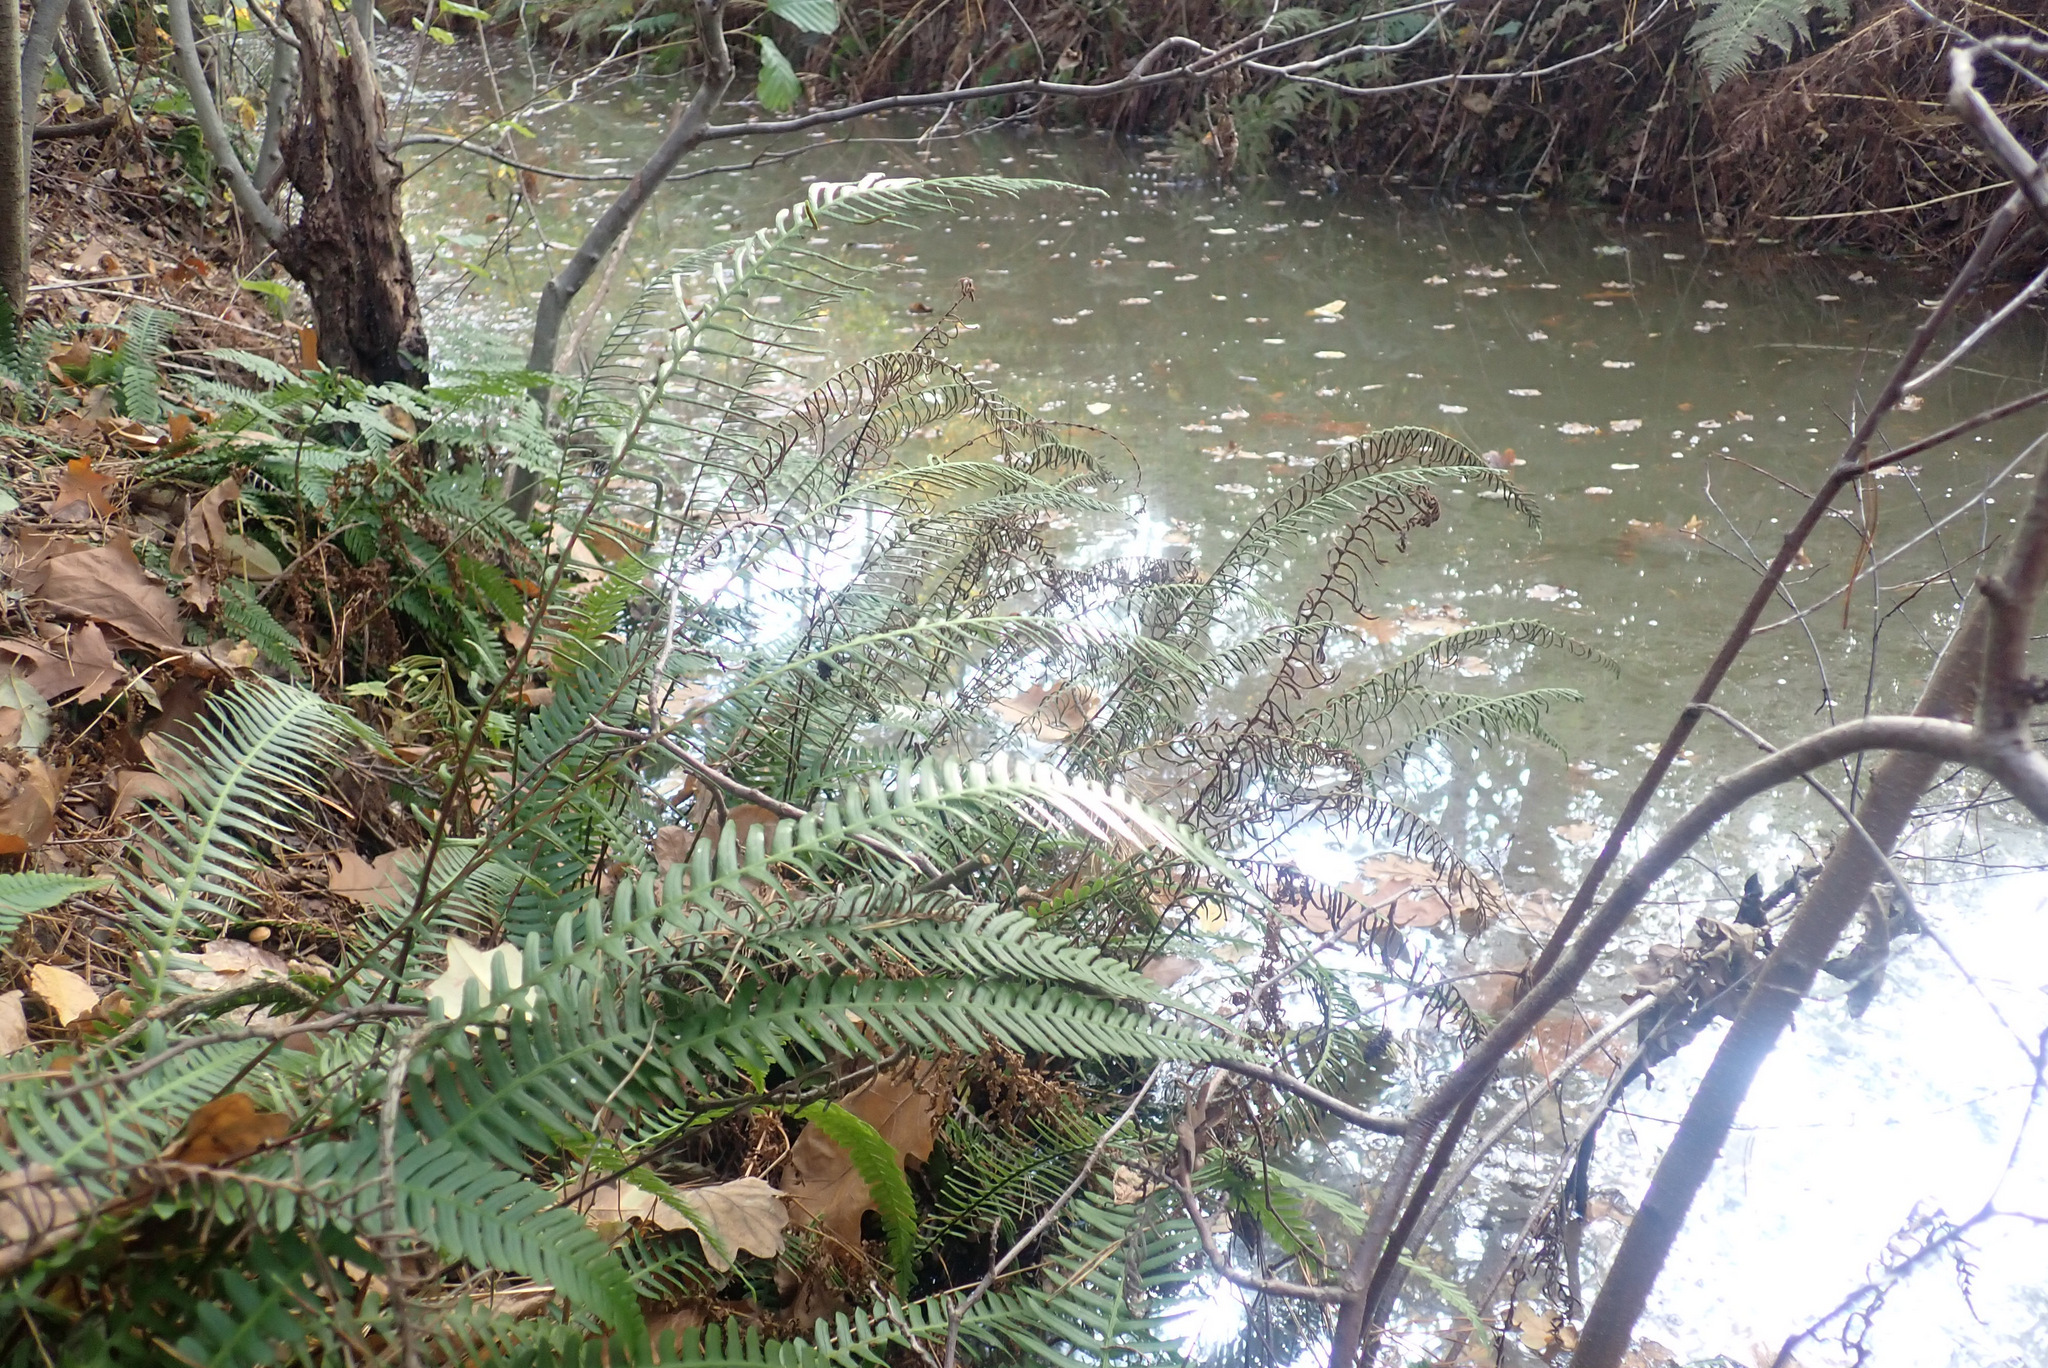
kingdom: Plantae
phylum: Tracheophyta
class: Polypodiopsida
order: Polypodiales
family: Blechnaceae
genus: Struthiopteris
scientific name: Struthiopteris spicant
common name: Deer fern
